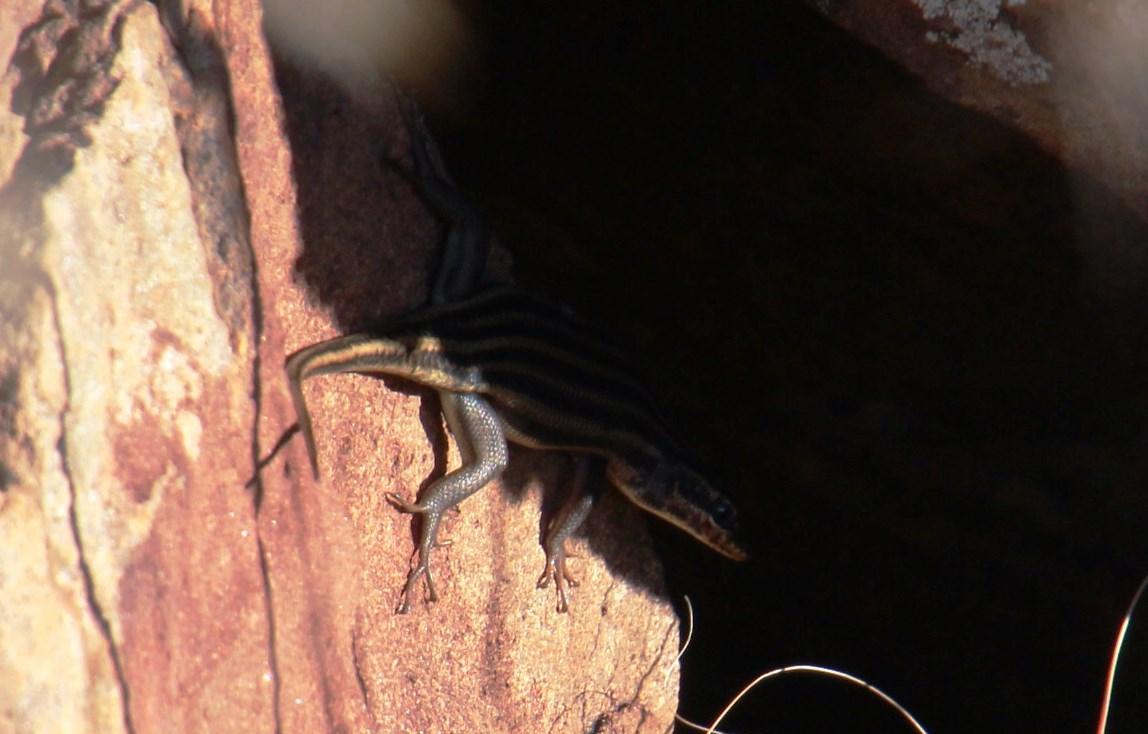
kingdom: Animalia
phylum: Chordata
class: Squamata
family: Scincidae
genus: Trachylepis
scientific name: Trachylepis sulcata
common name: Western rock skink
